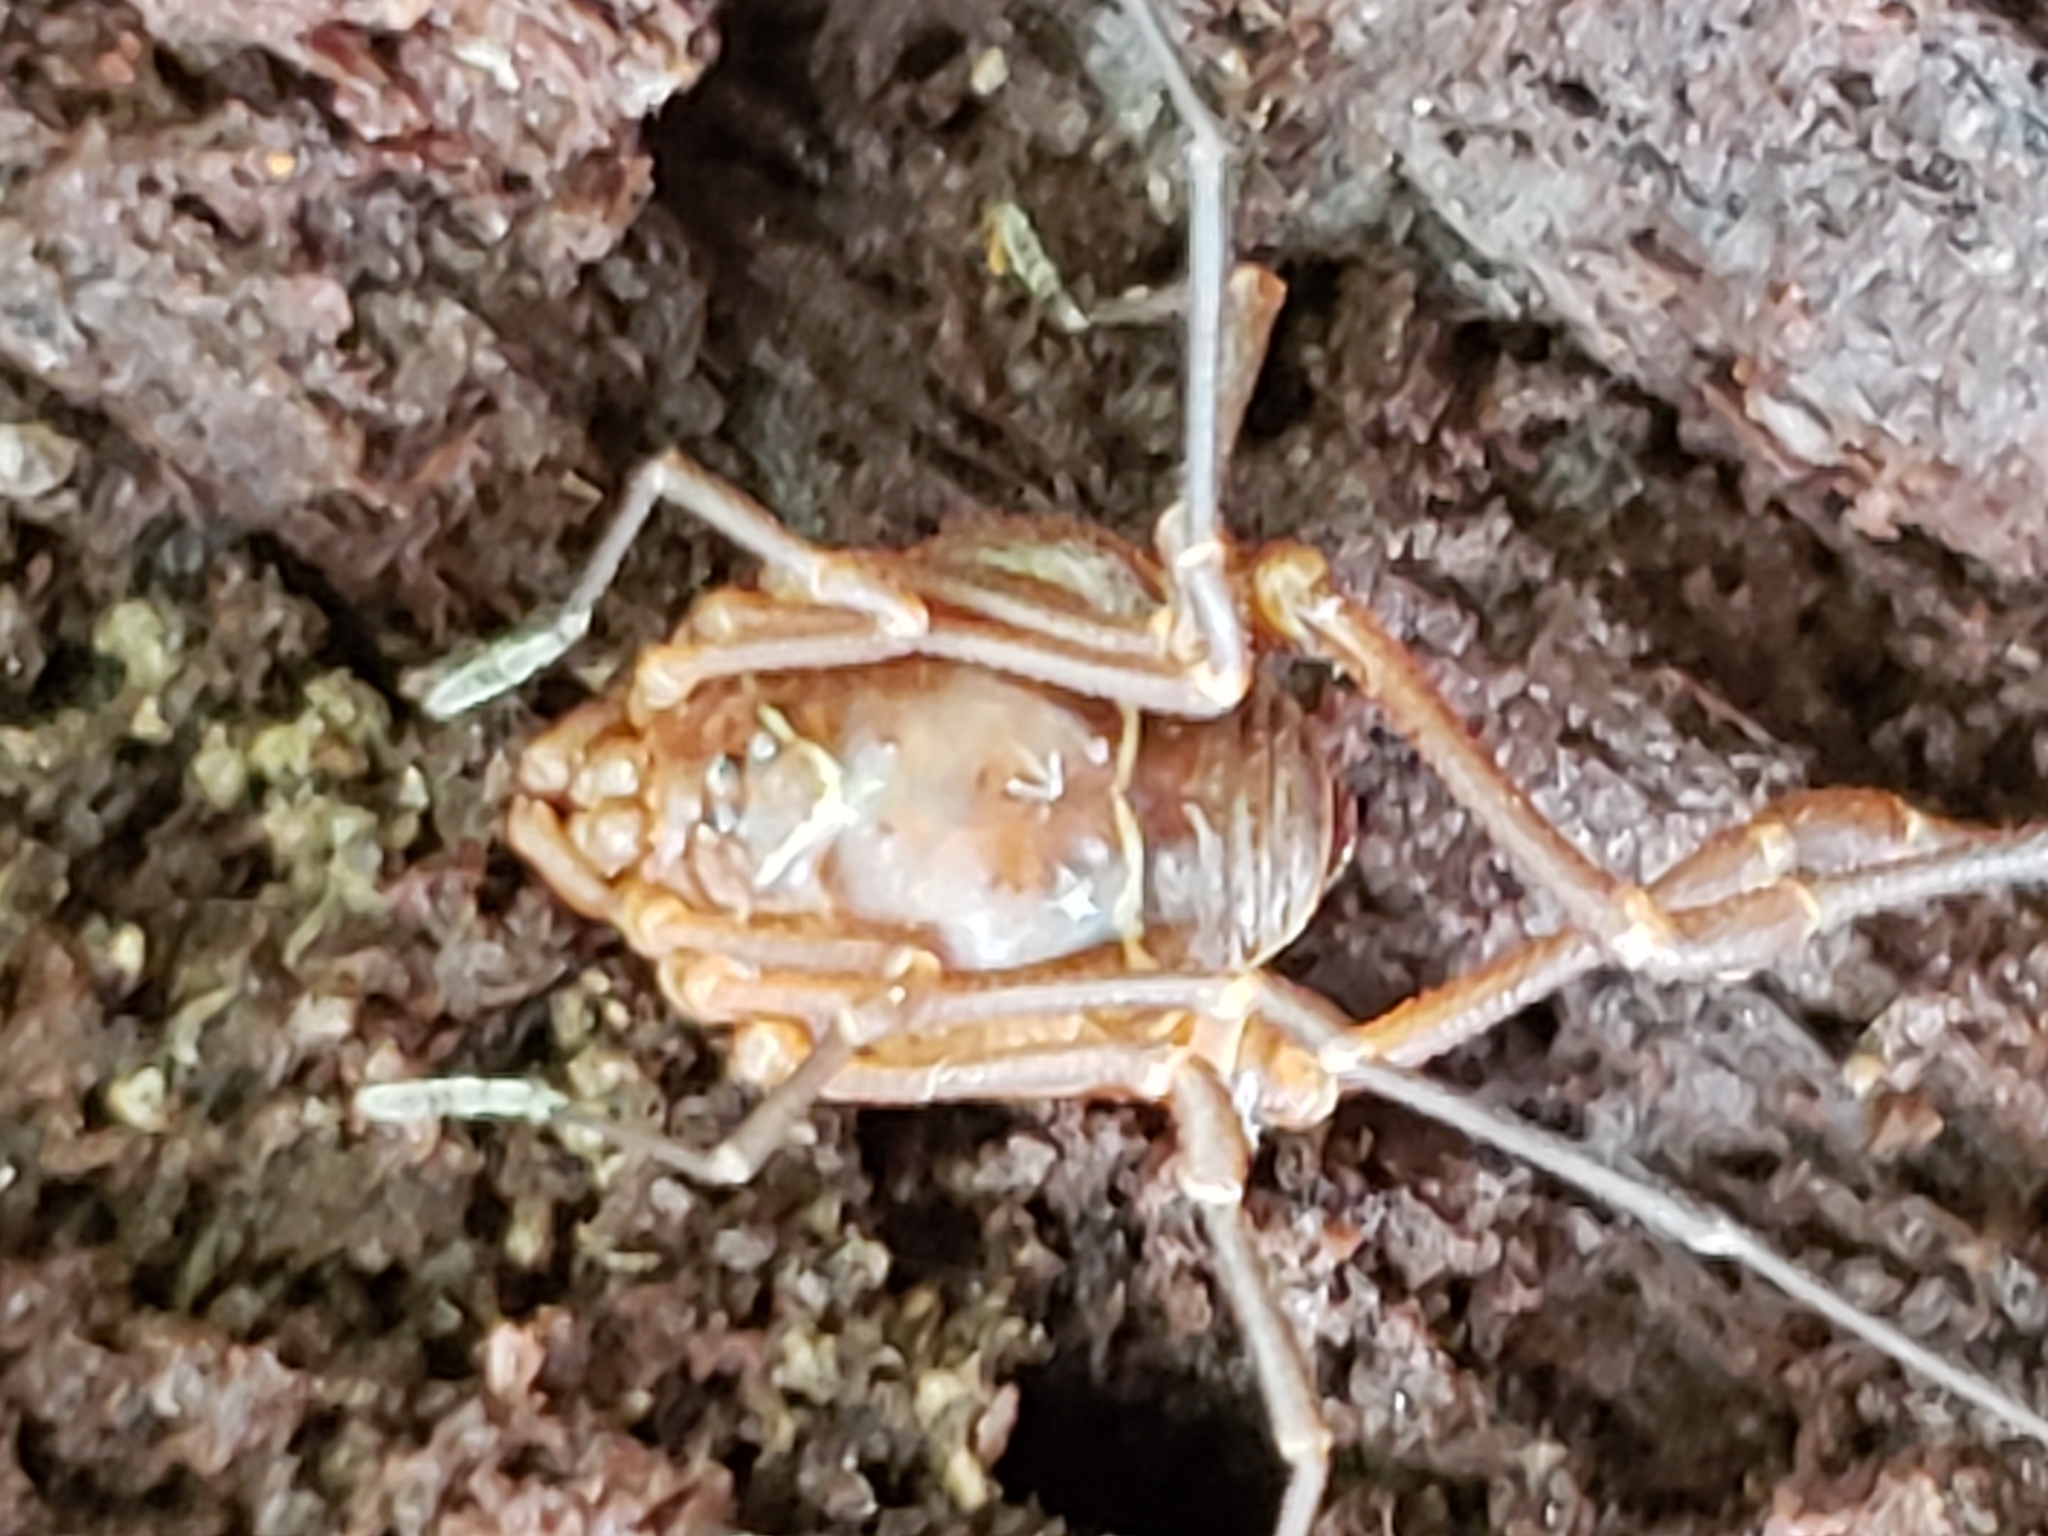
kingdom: Animalia
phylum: Arthropoda
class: Arachnida
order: Opiliones
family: Cosmetidae
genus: Libitioides
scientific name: Libitioides sayi
